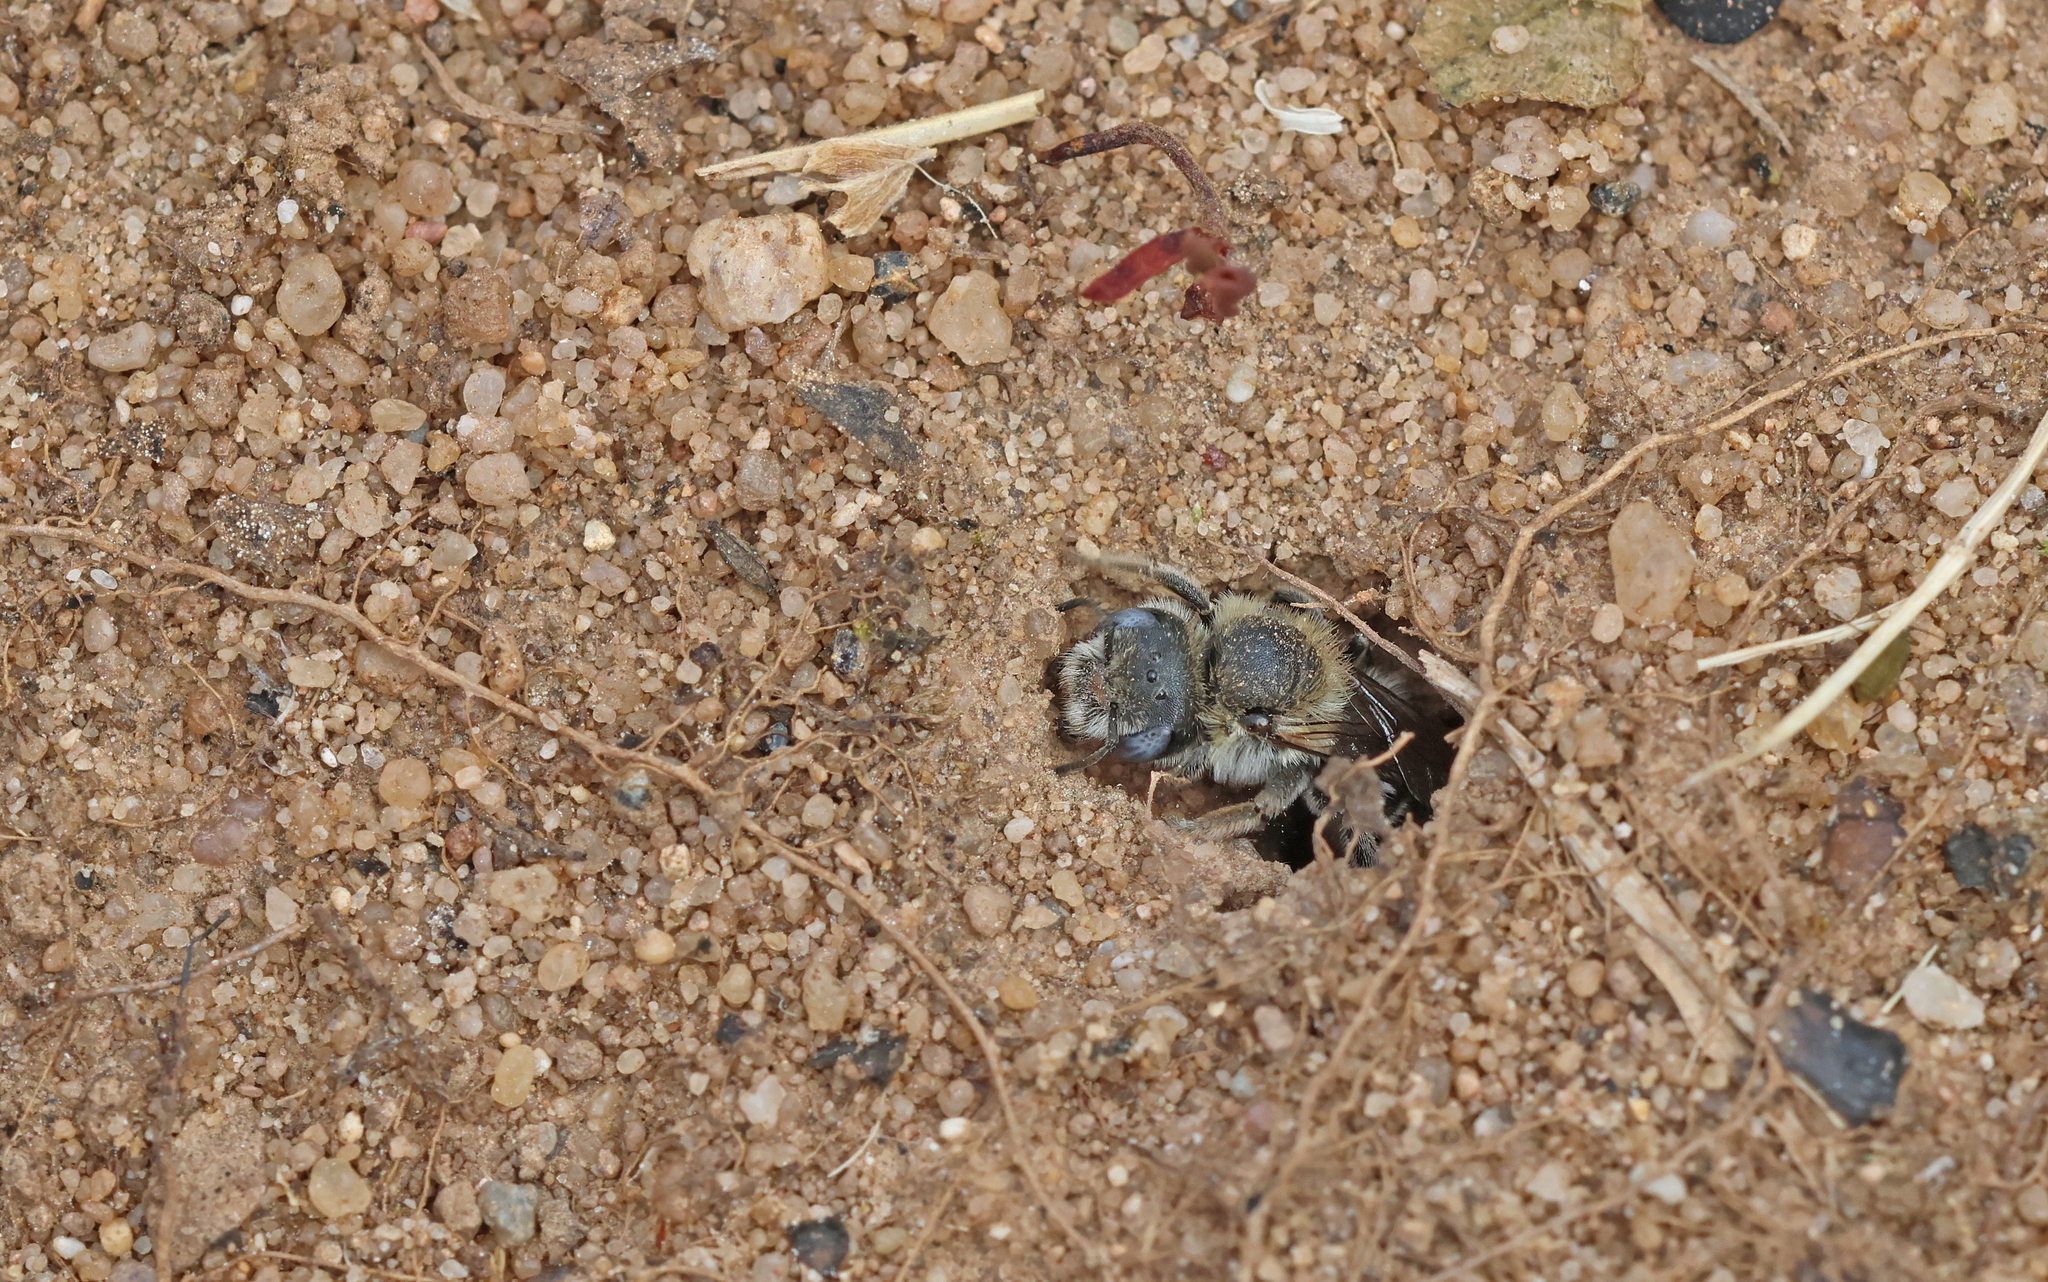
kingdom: Animalia
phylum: Arthropoda
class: Insecta
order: Hymenoptera
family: Megachilidae
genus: Hoplitis
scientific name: Hoplitis papaveris
